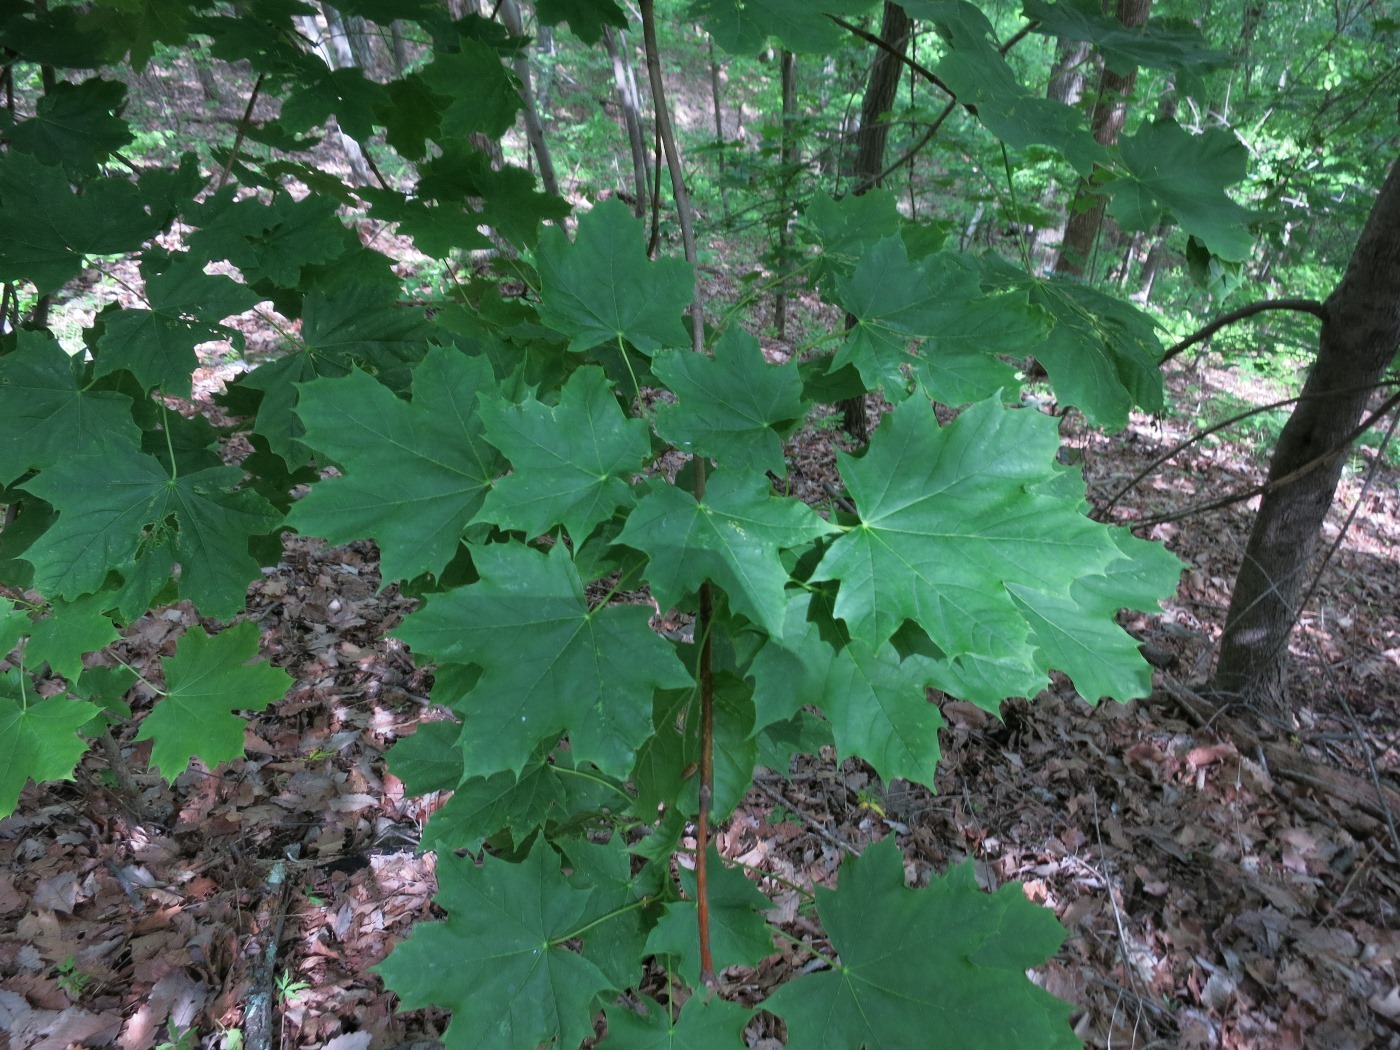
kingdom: Plantae
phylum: Tracheophyta
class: Magnoliopsida
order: Sapindales
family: Sapindaceae
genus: Acer
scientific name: Acer platanoides
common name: Norway maple
